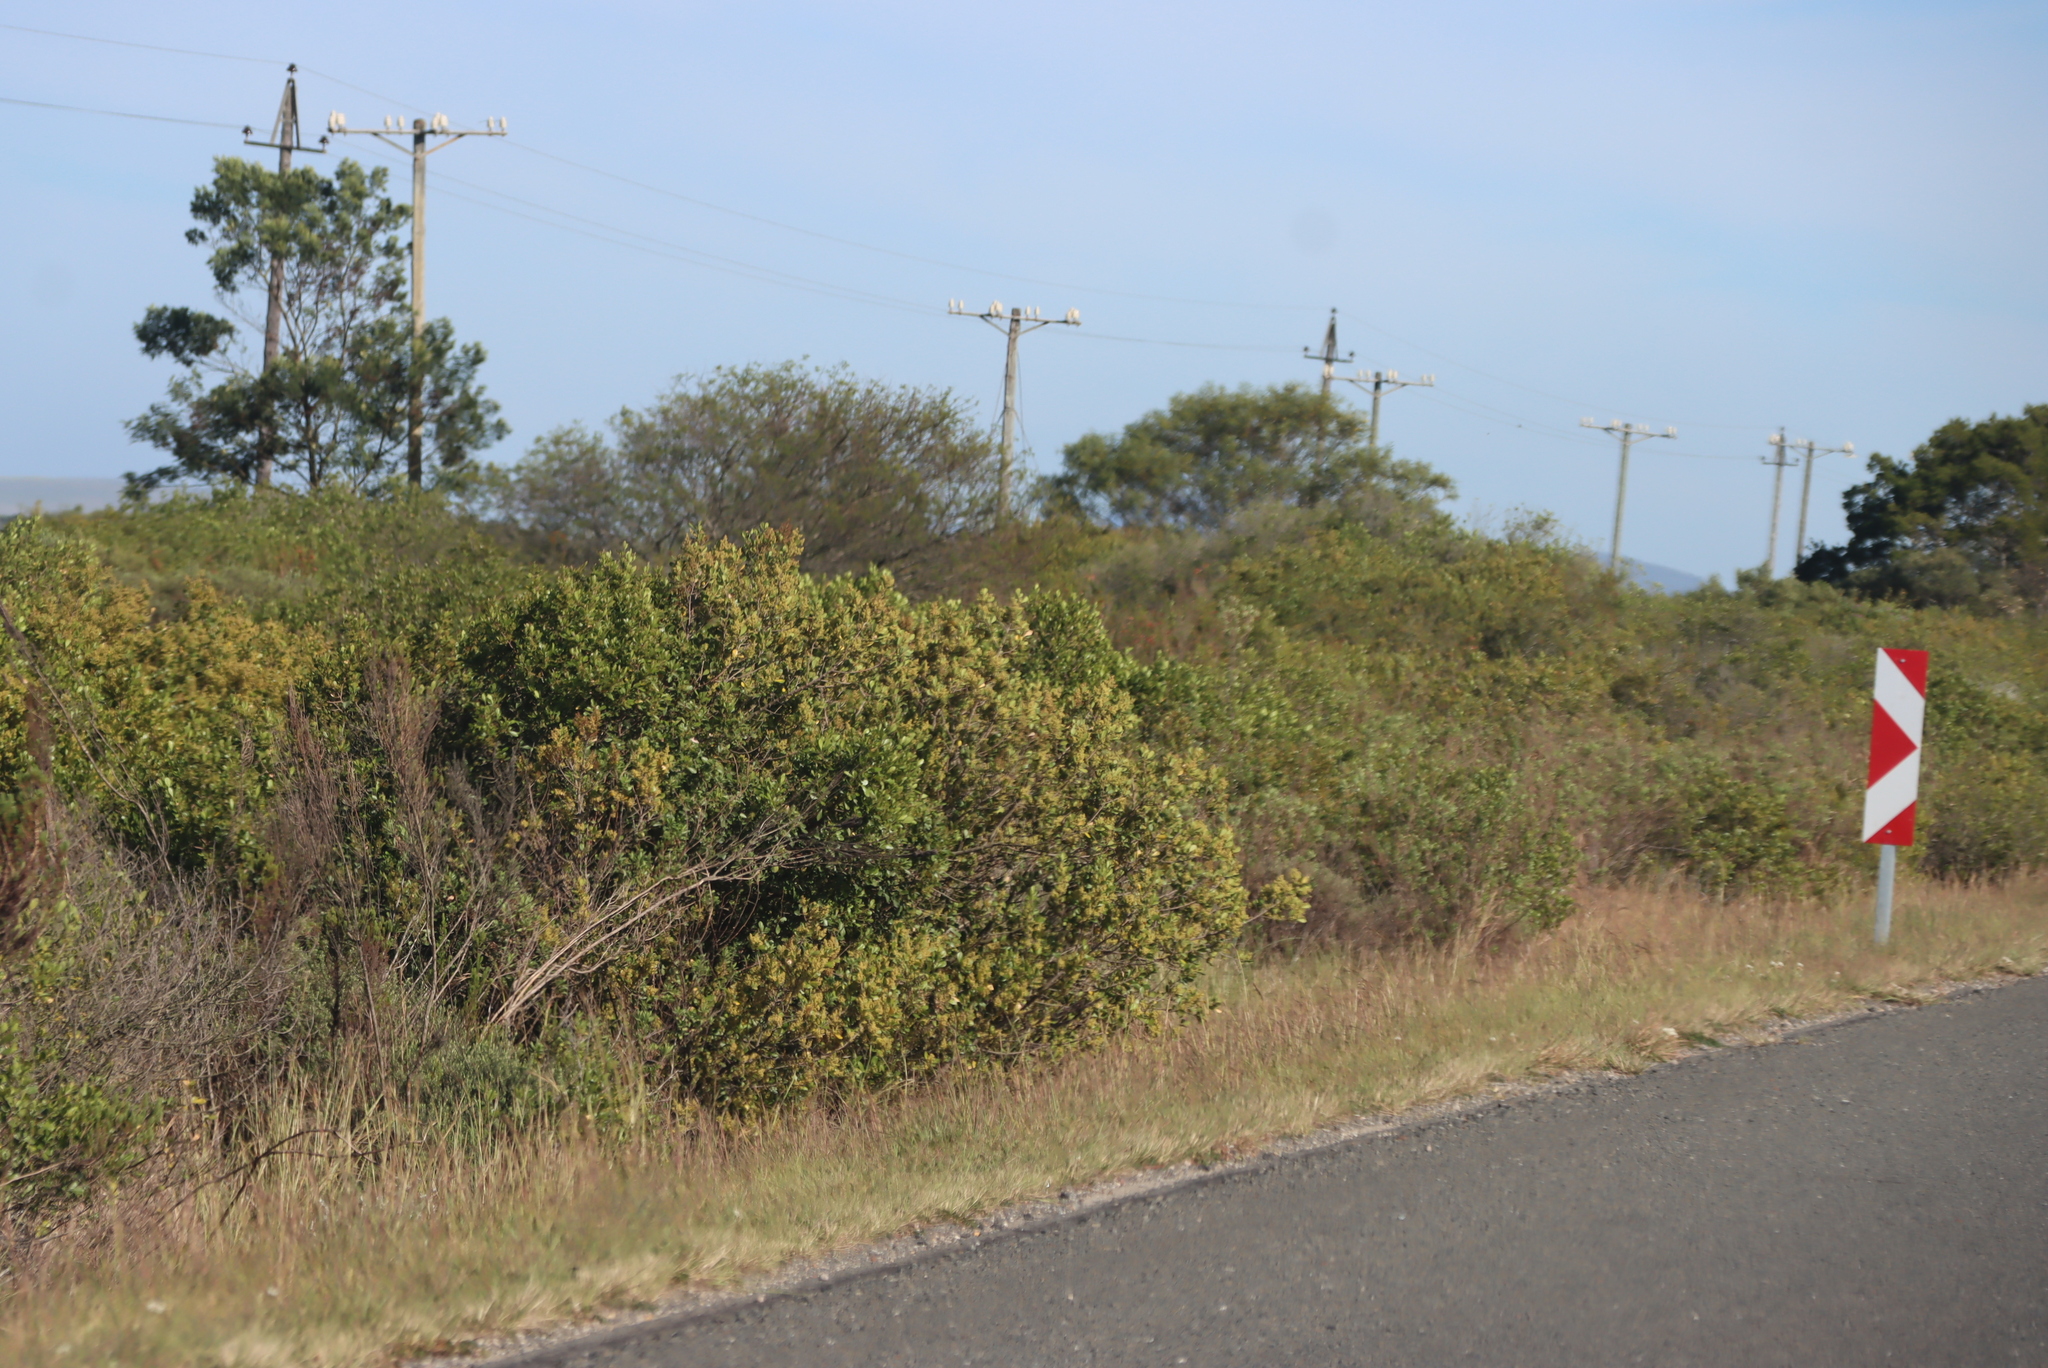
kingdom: Plantae
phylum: Tracheophyta
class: Magnoliopsida
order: Asterales
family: Asteraceae
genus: Osteospermum
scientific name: Osteospermum moniliferum
